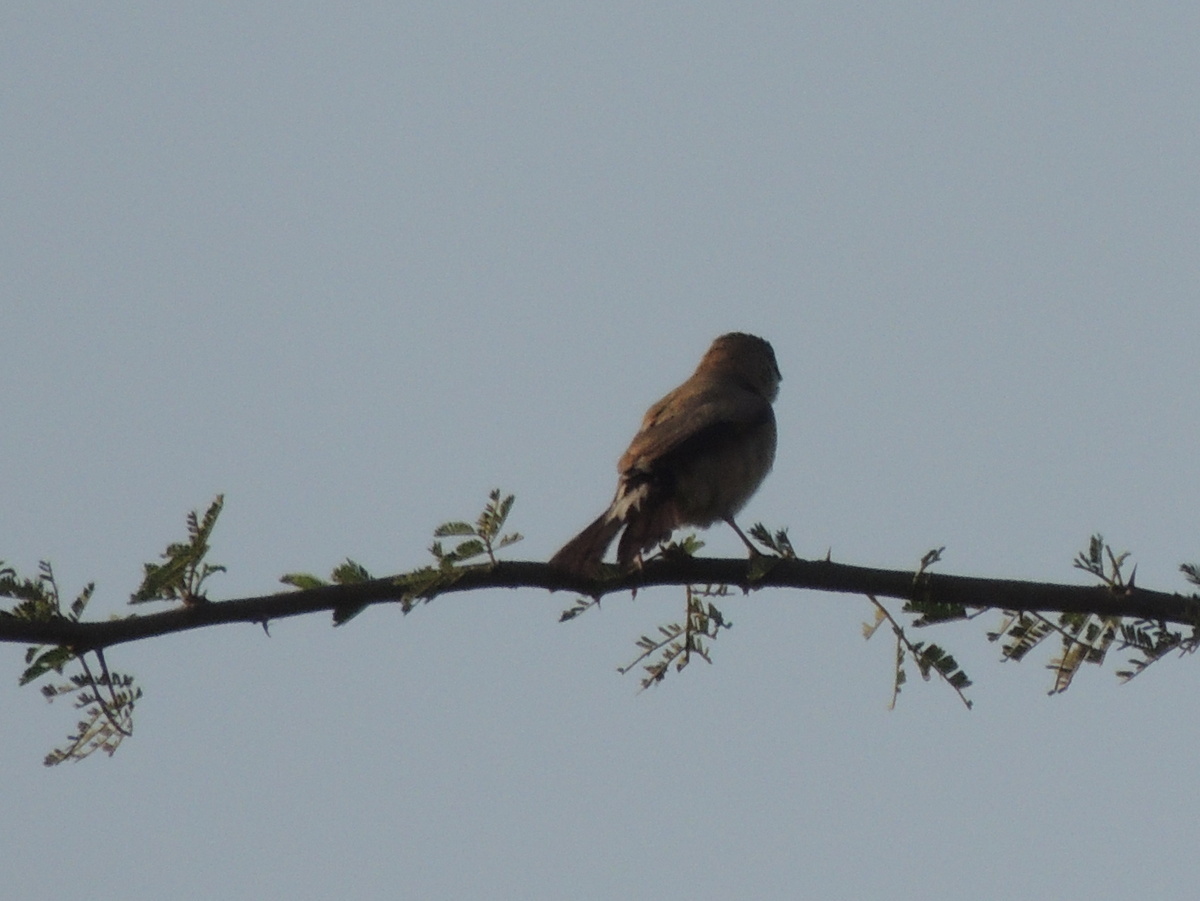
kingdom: Animalia
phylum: Chordata
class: Aves
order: Passeriformes
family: Estrildidae
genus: Euodice
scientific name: Euodice malabarica
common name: Indian silverbill
